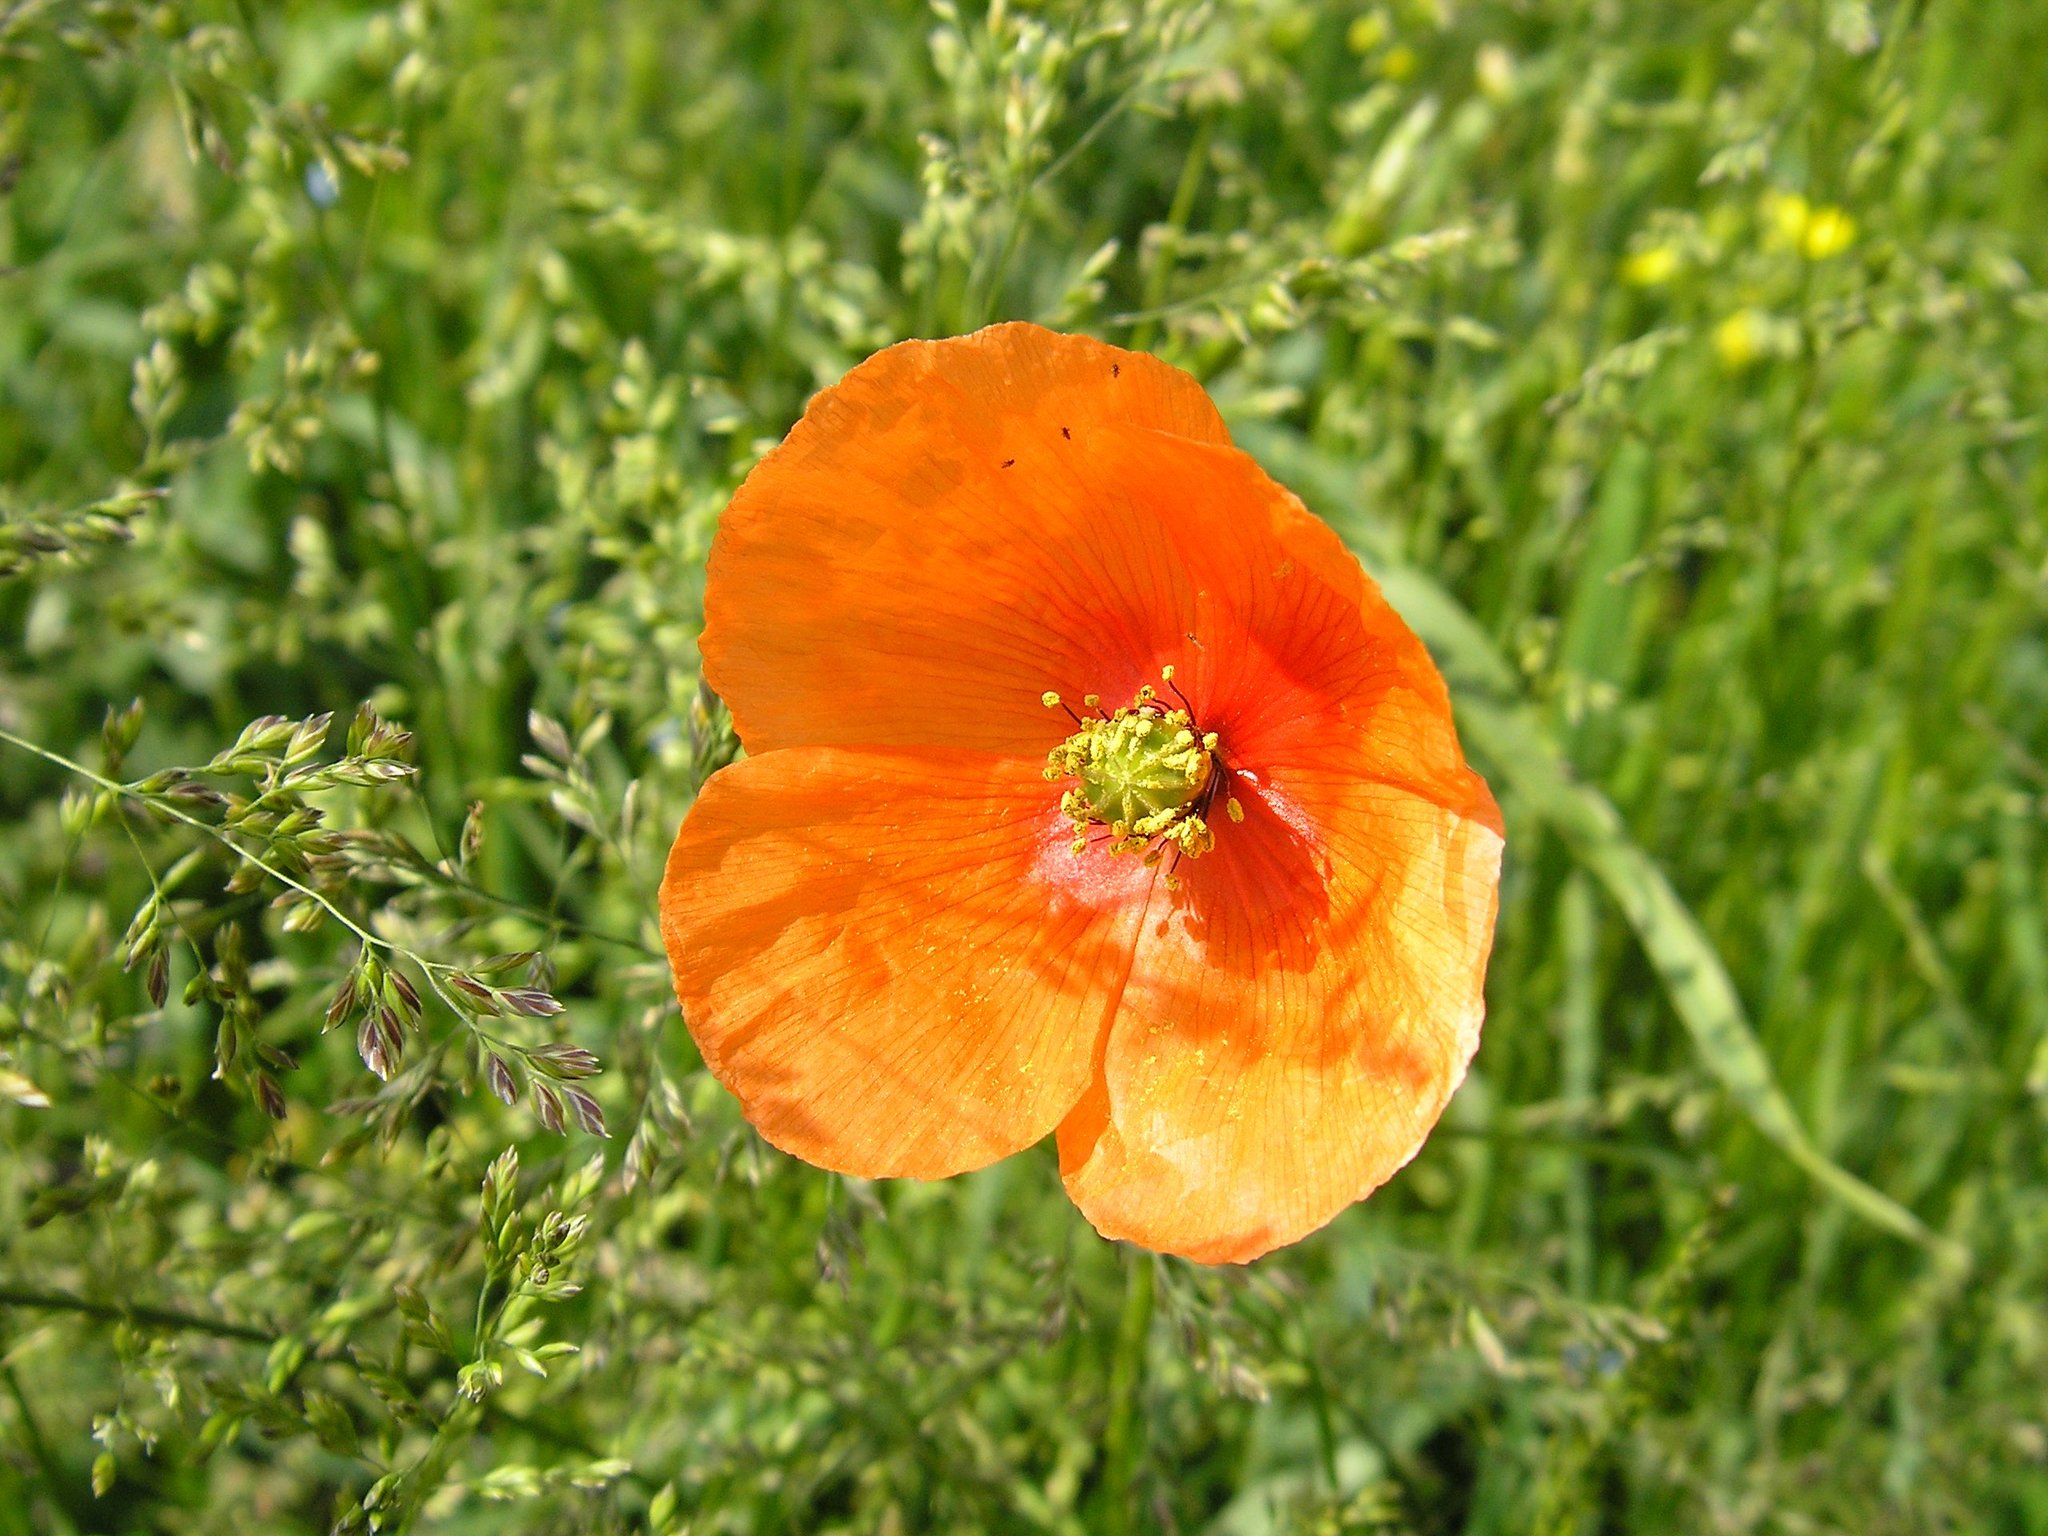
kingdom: Plantae
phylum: Tracheophyta
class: Magnoliopsida
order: Ranunculales
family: Papaveraceae
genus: Papaver
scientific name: Papaver dubium
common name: Long-headed poppy
